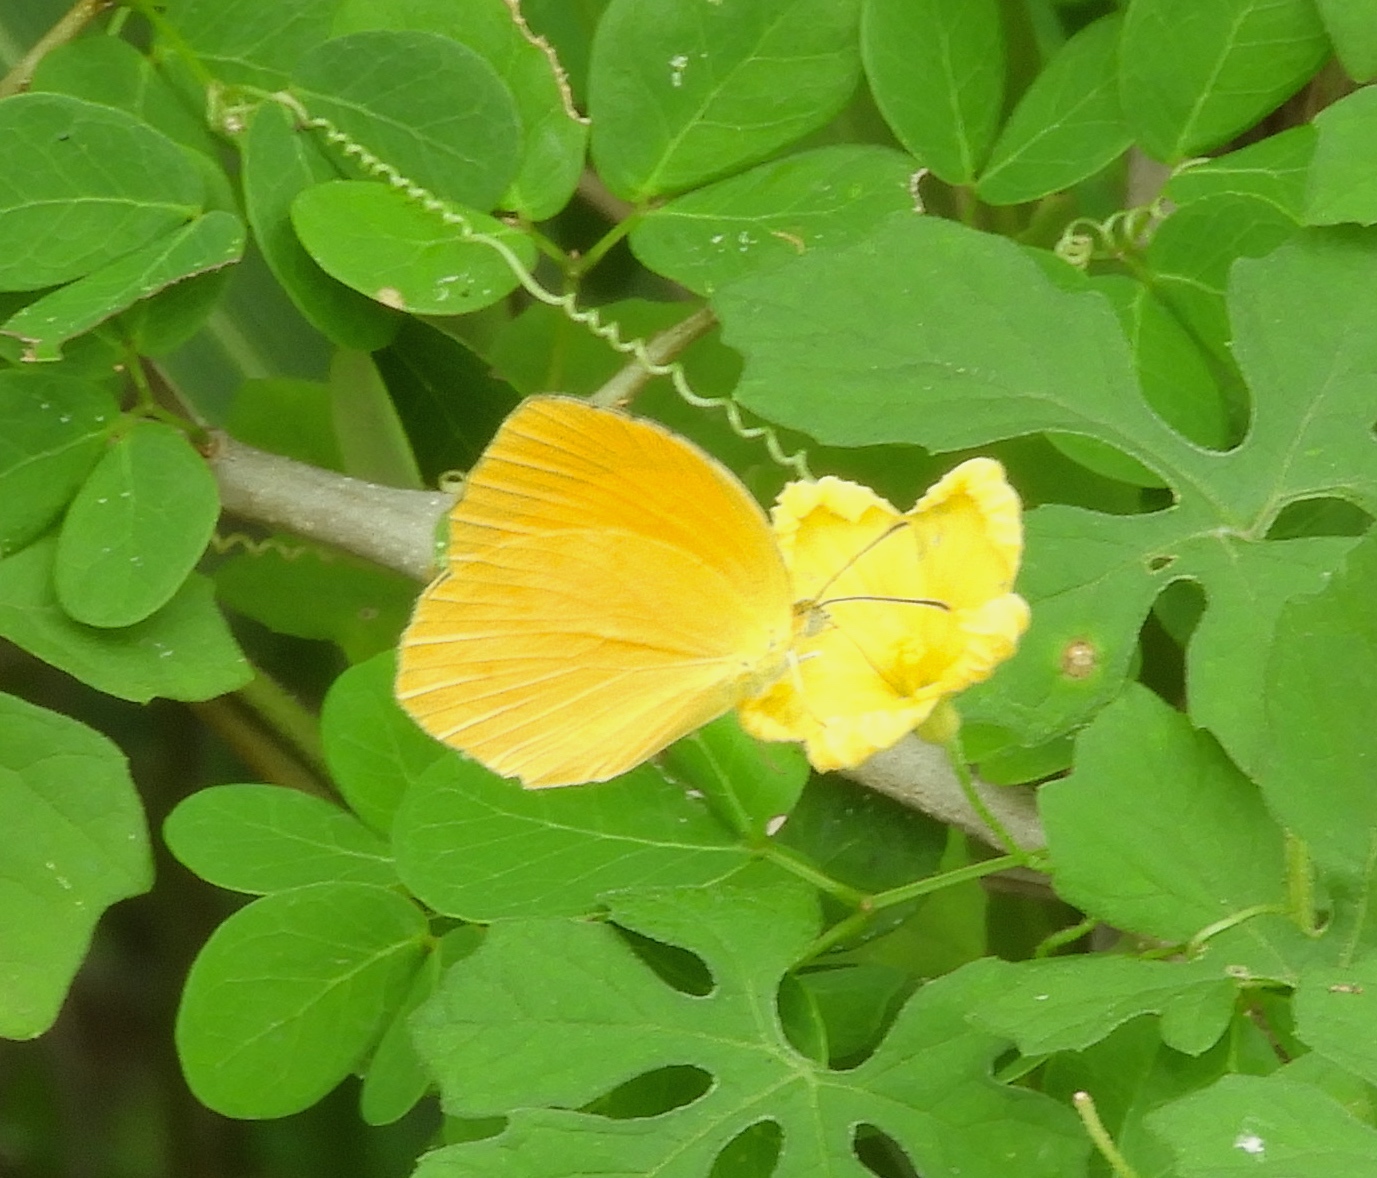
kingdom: Animalia
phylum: Arthropoda
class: Insecta
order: Lepidoptera
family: Pieridae
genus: Pyrisitia
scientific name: Pyrisitia proterpia
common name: Tailed orange
